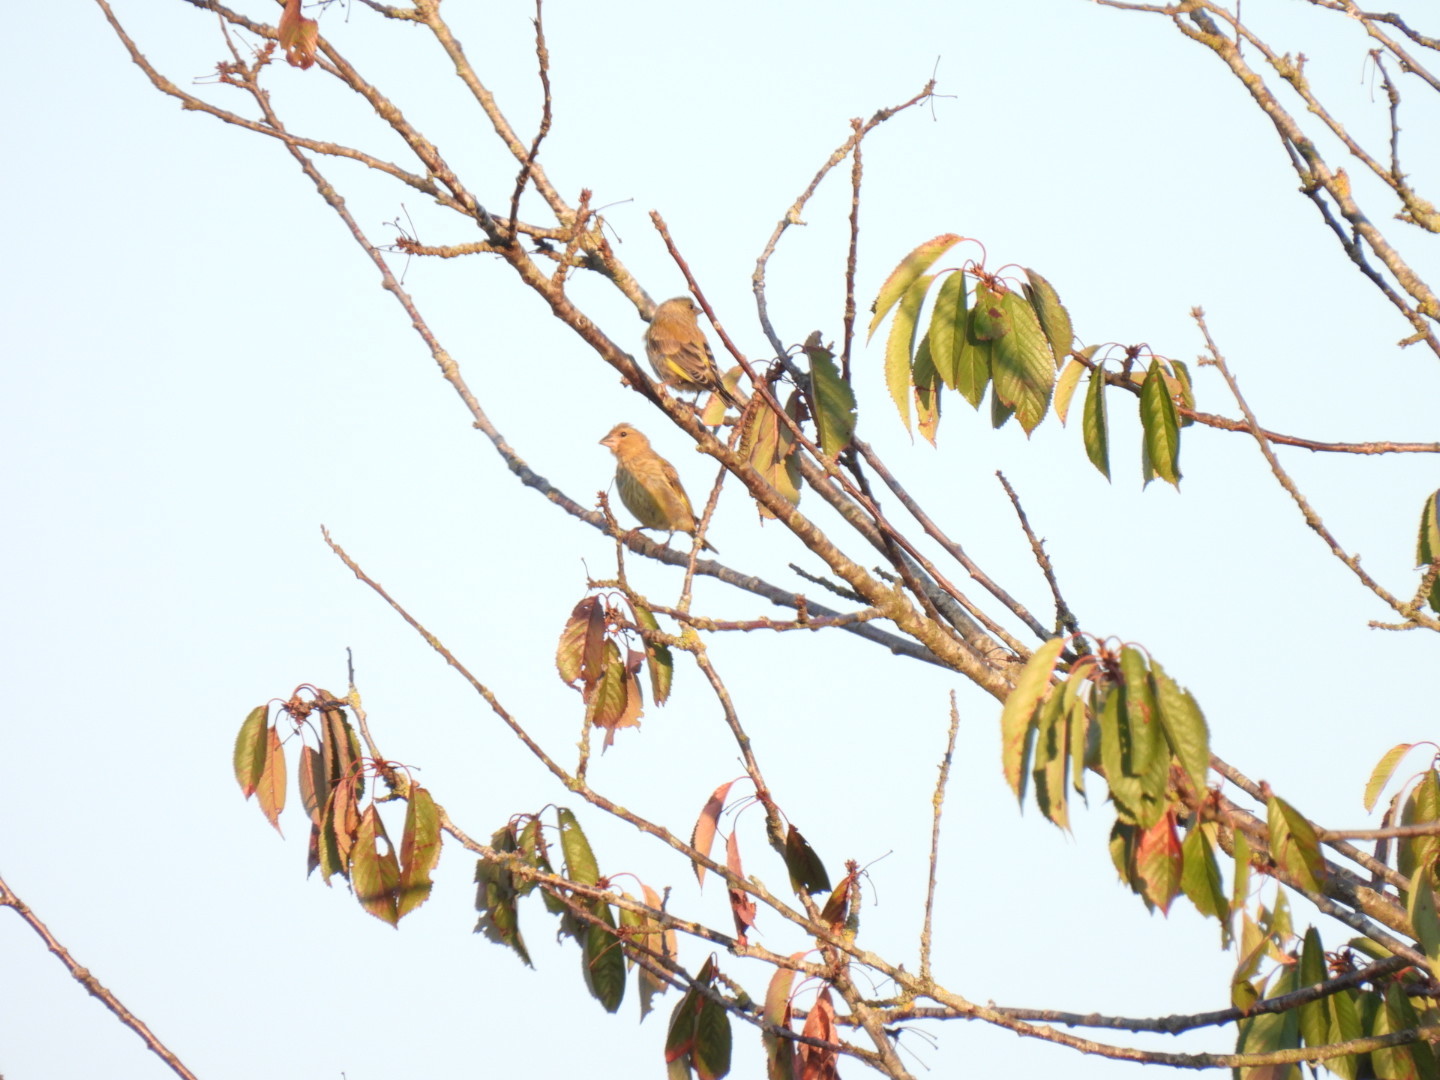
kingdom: Plantae
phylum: Tracheophyta
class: Liliopsida
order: Poales
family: Poaceae
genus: Chloris
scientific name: Chloris chloris
